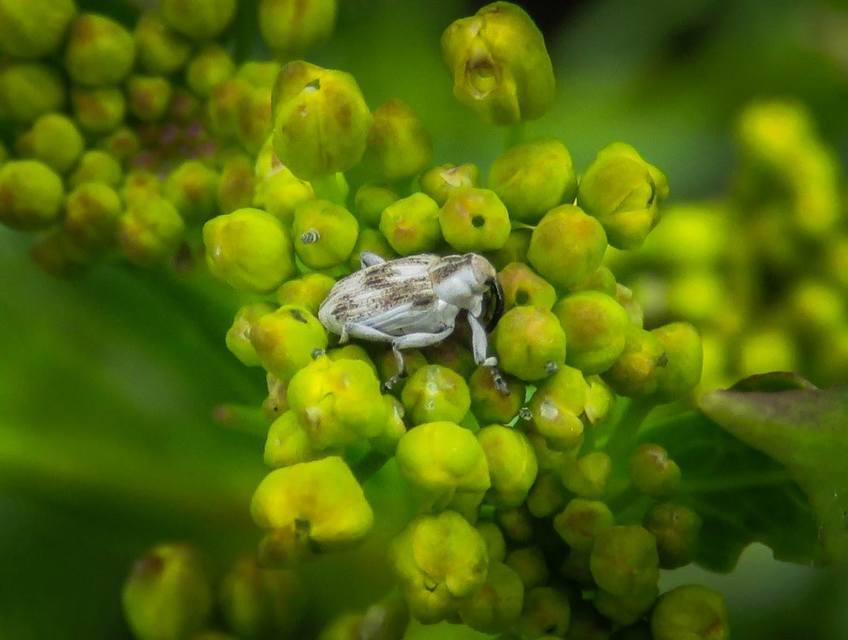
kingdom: Animalia
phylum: Arthropoda
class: Insecta
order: Coleoptera
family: Curculionidae
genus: Poophagus
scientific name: Poophagus sisymbrii
